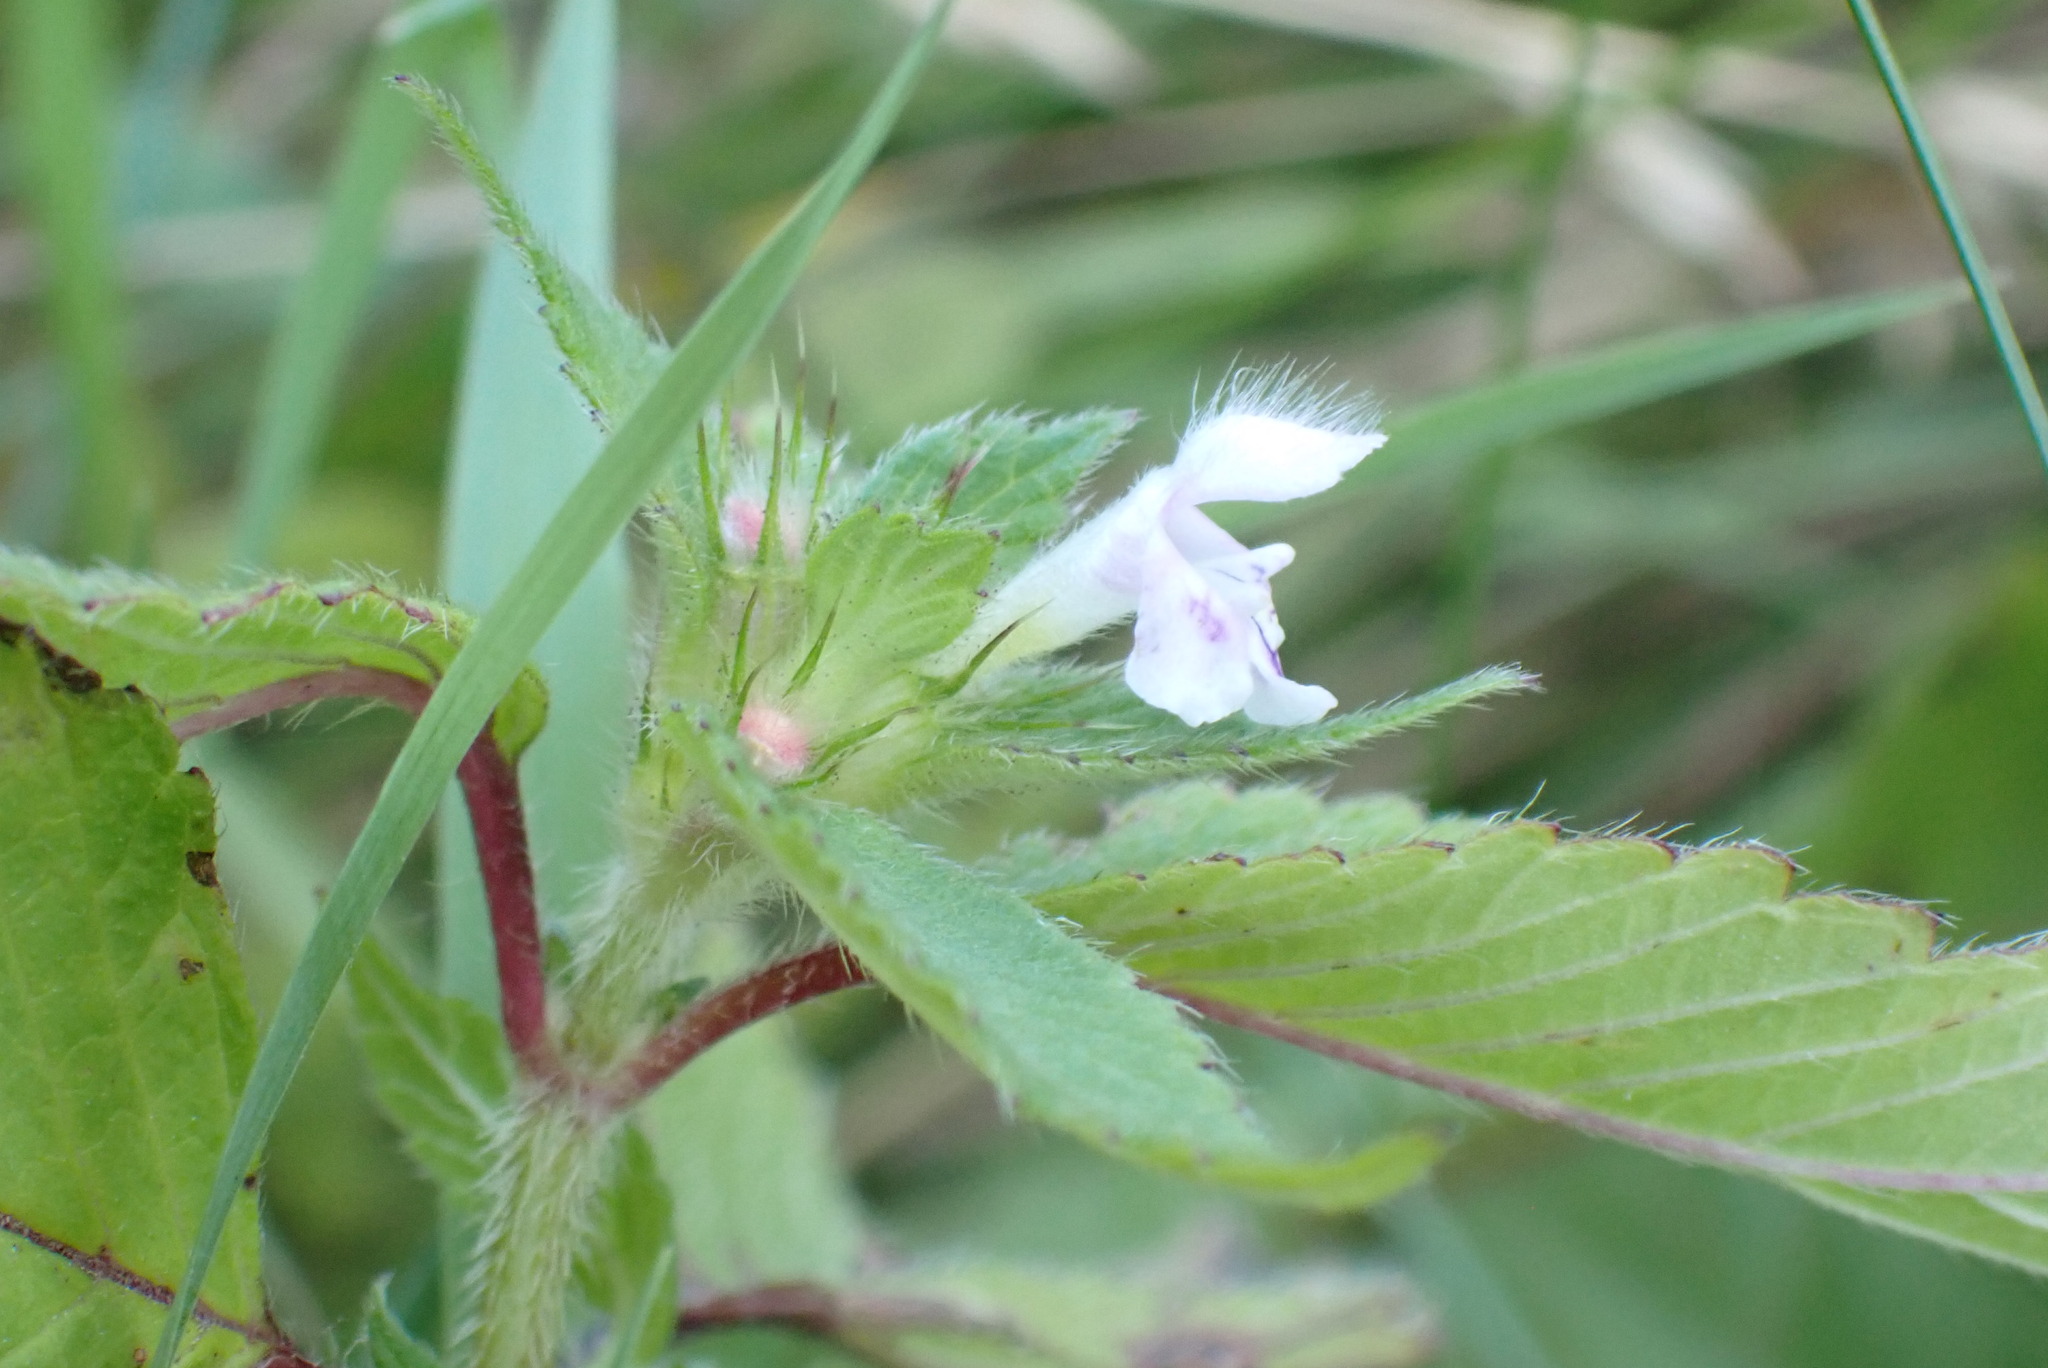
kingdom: Plantae
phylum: Tracheophyta
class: Magnoliopsida
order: Lamiales
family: Lamiaceae
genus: Galeopsis
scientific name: Galeopsis tetrahit
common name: Common hemp-nettle
